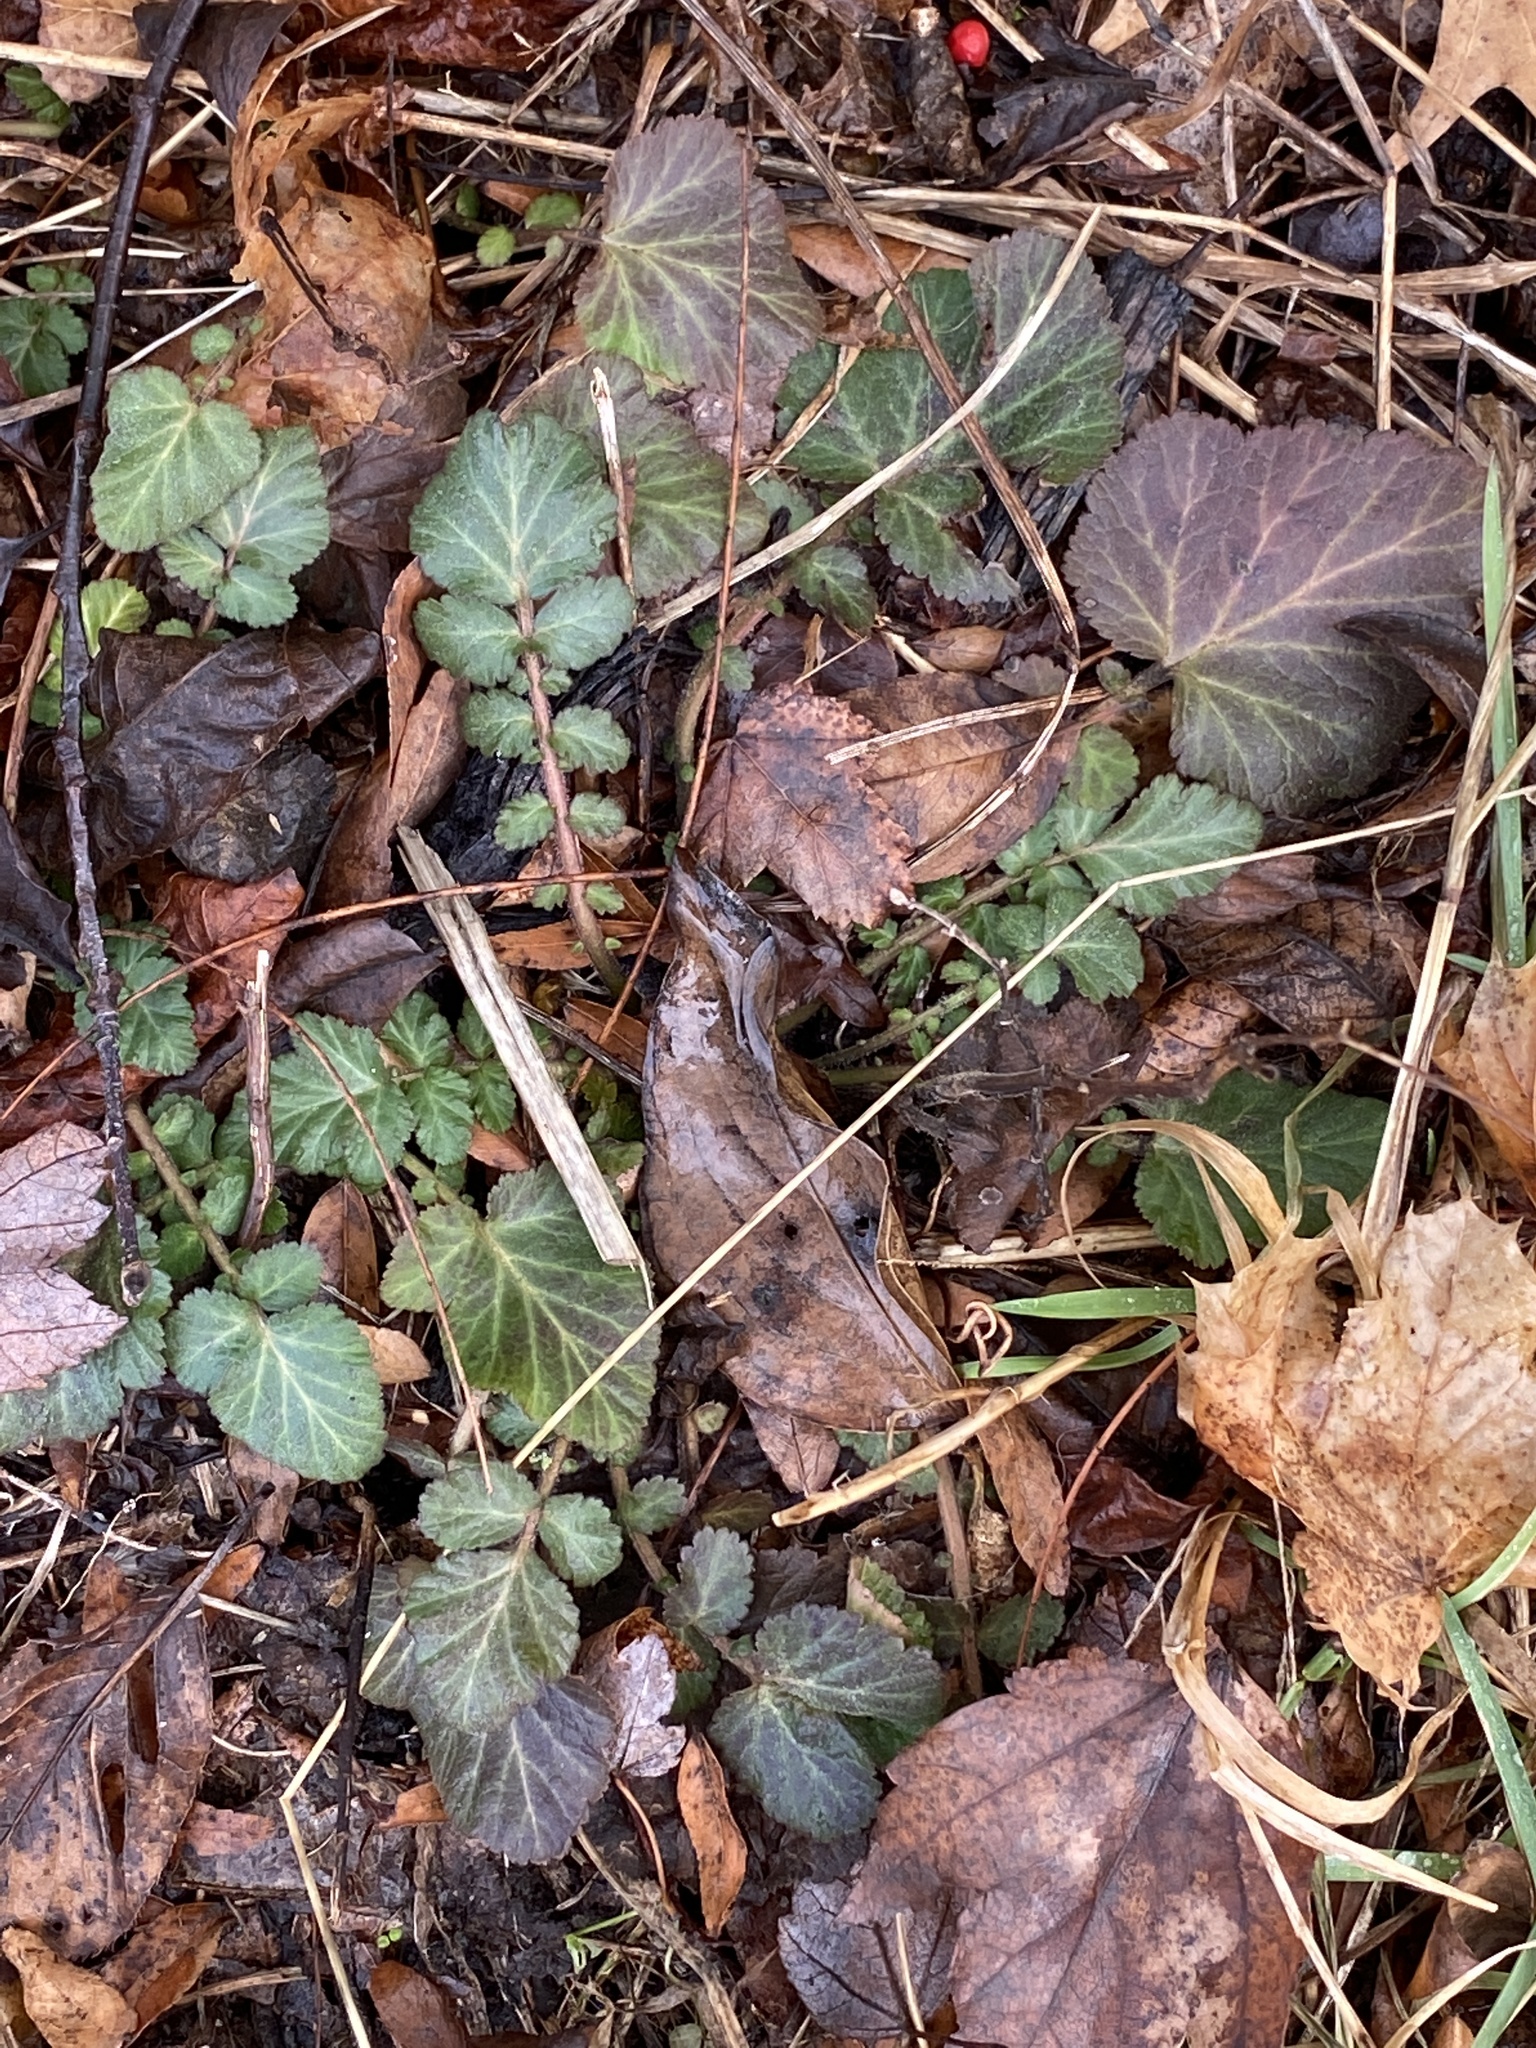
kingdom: Plantae
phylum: Tracheophyta
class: Magnoliopsida
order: Rosales
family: Rosaceae
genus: Geum
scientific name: Geum canadense
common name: White avens
